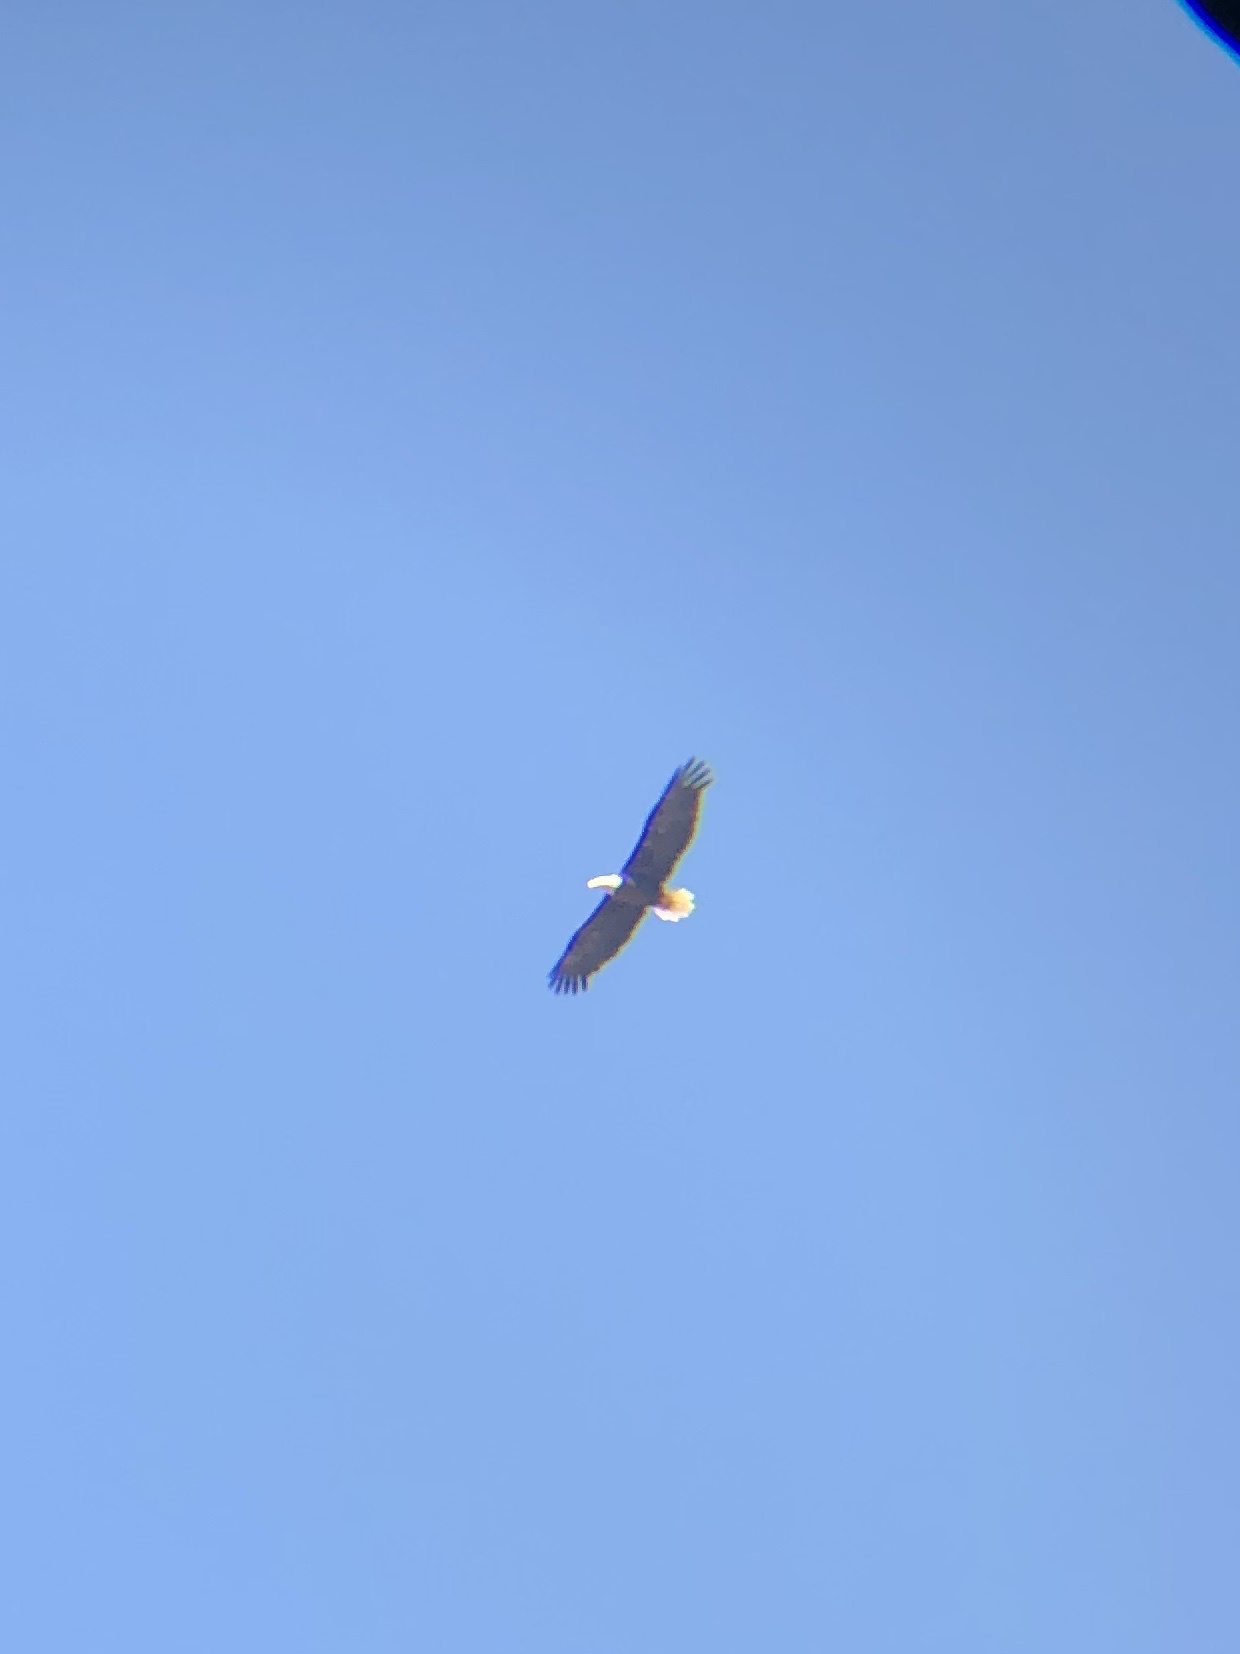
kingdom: Animalia
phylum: Chordata
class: Aves
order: Accipitriformes
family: Accipitridae
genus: Haliaeetus
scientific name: Haliaeetus leucocephalus
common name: Bald eagle
